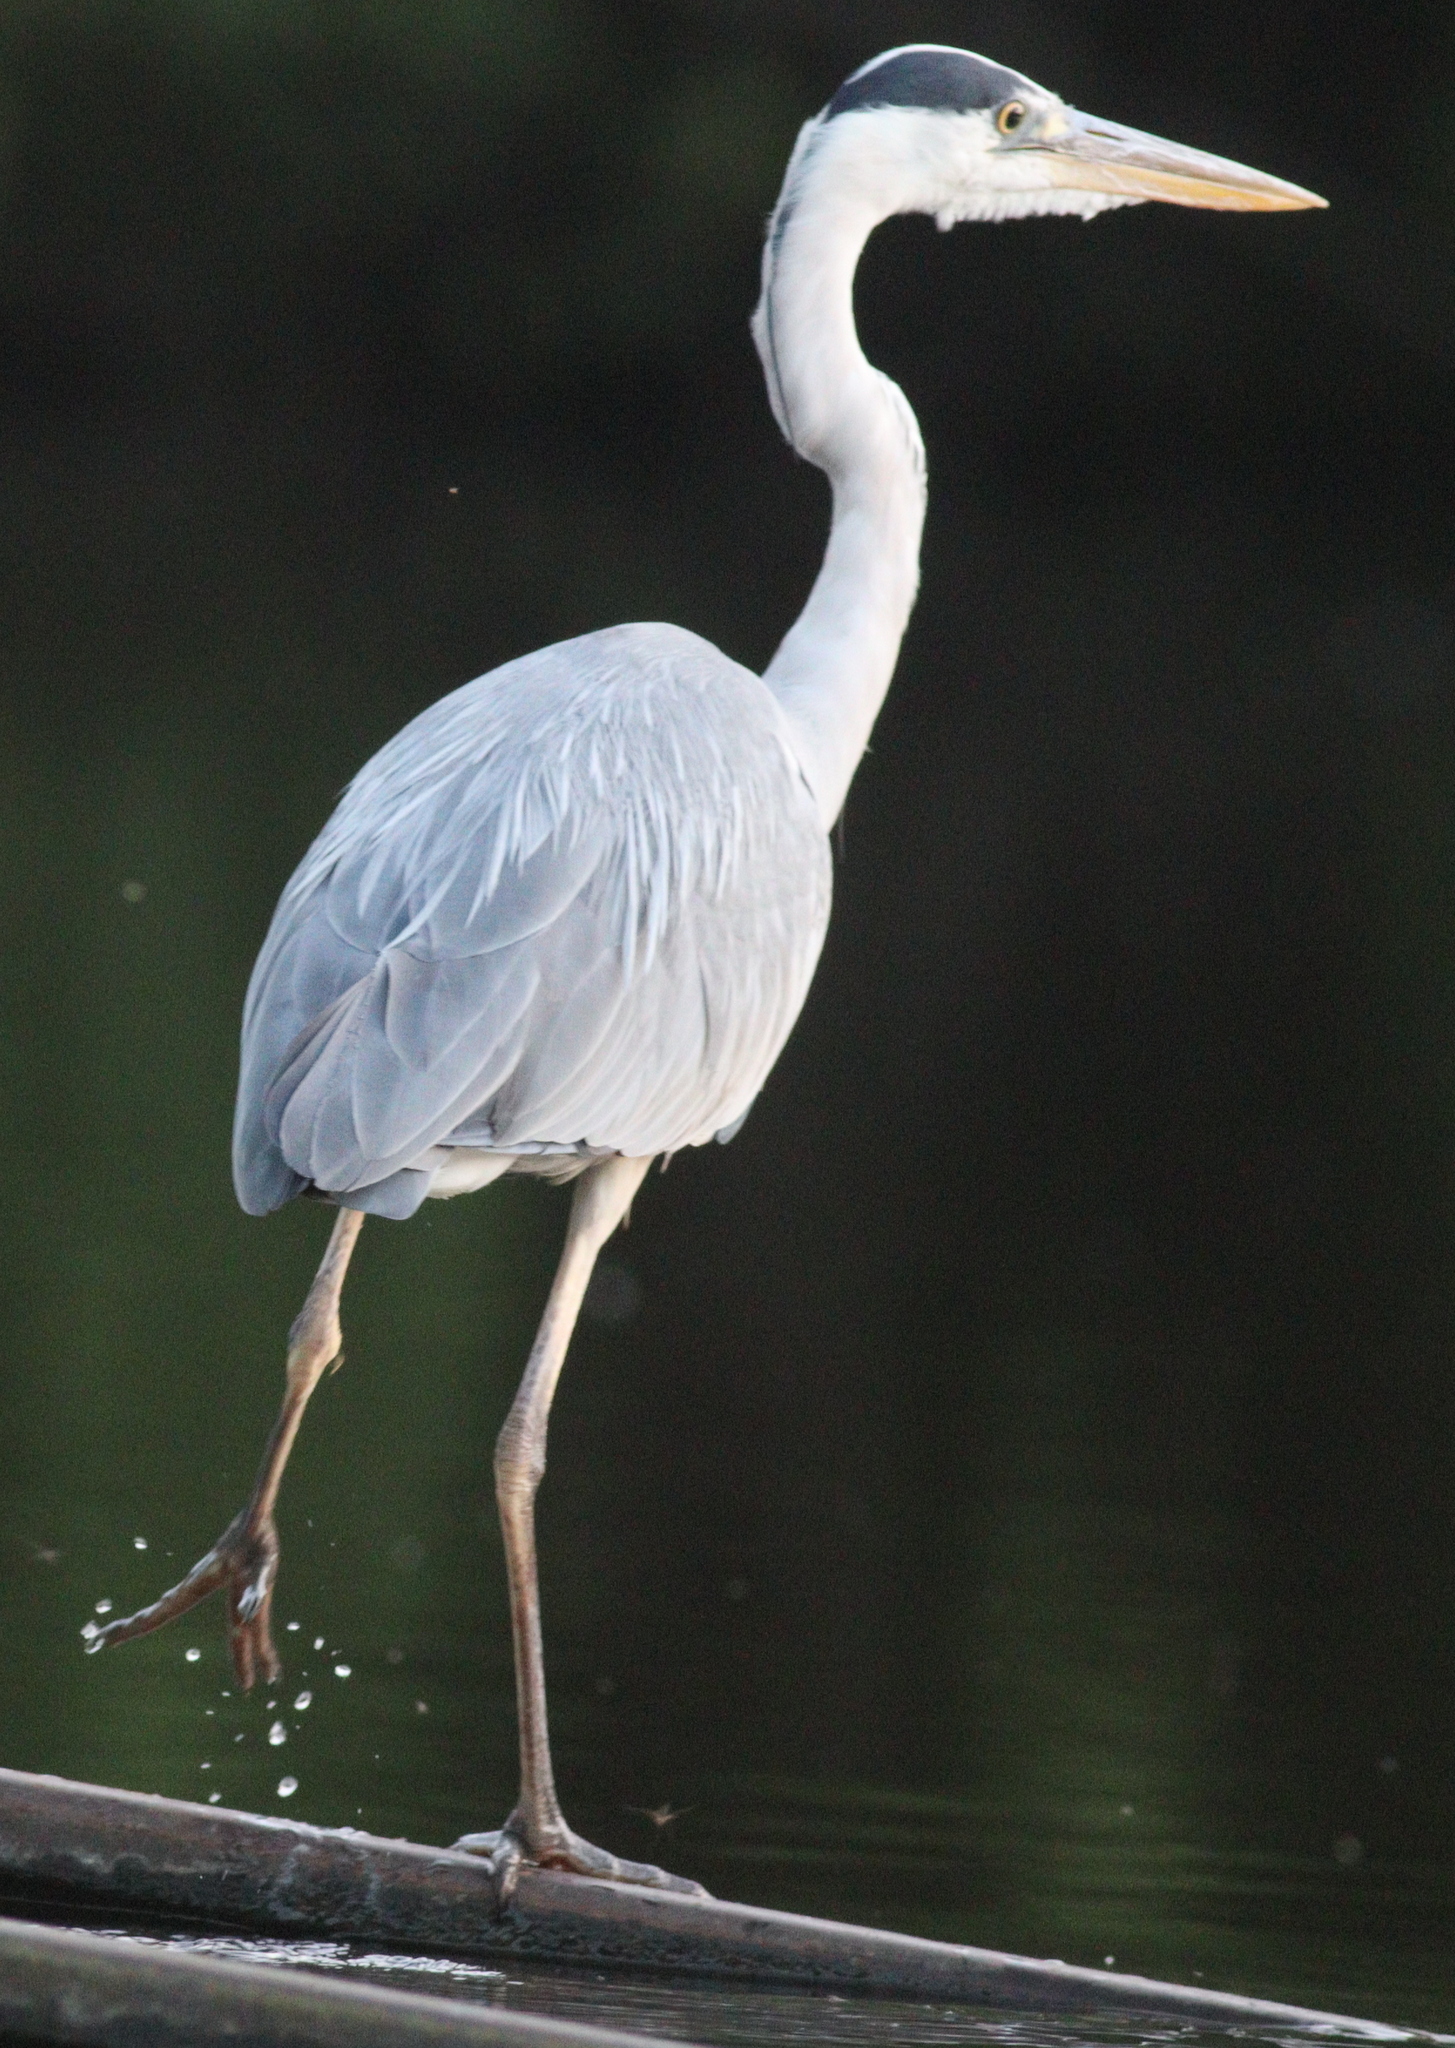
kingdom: Animalia
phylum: Chordata
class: Aves
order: Pelecaniformes
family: Ardeidae
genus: Ardea
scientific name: Ardea cinerea
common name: Grey heron
